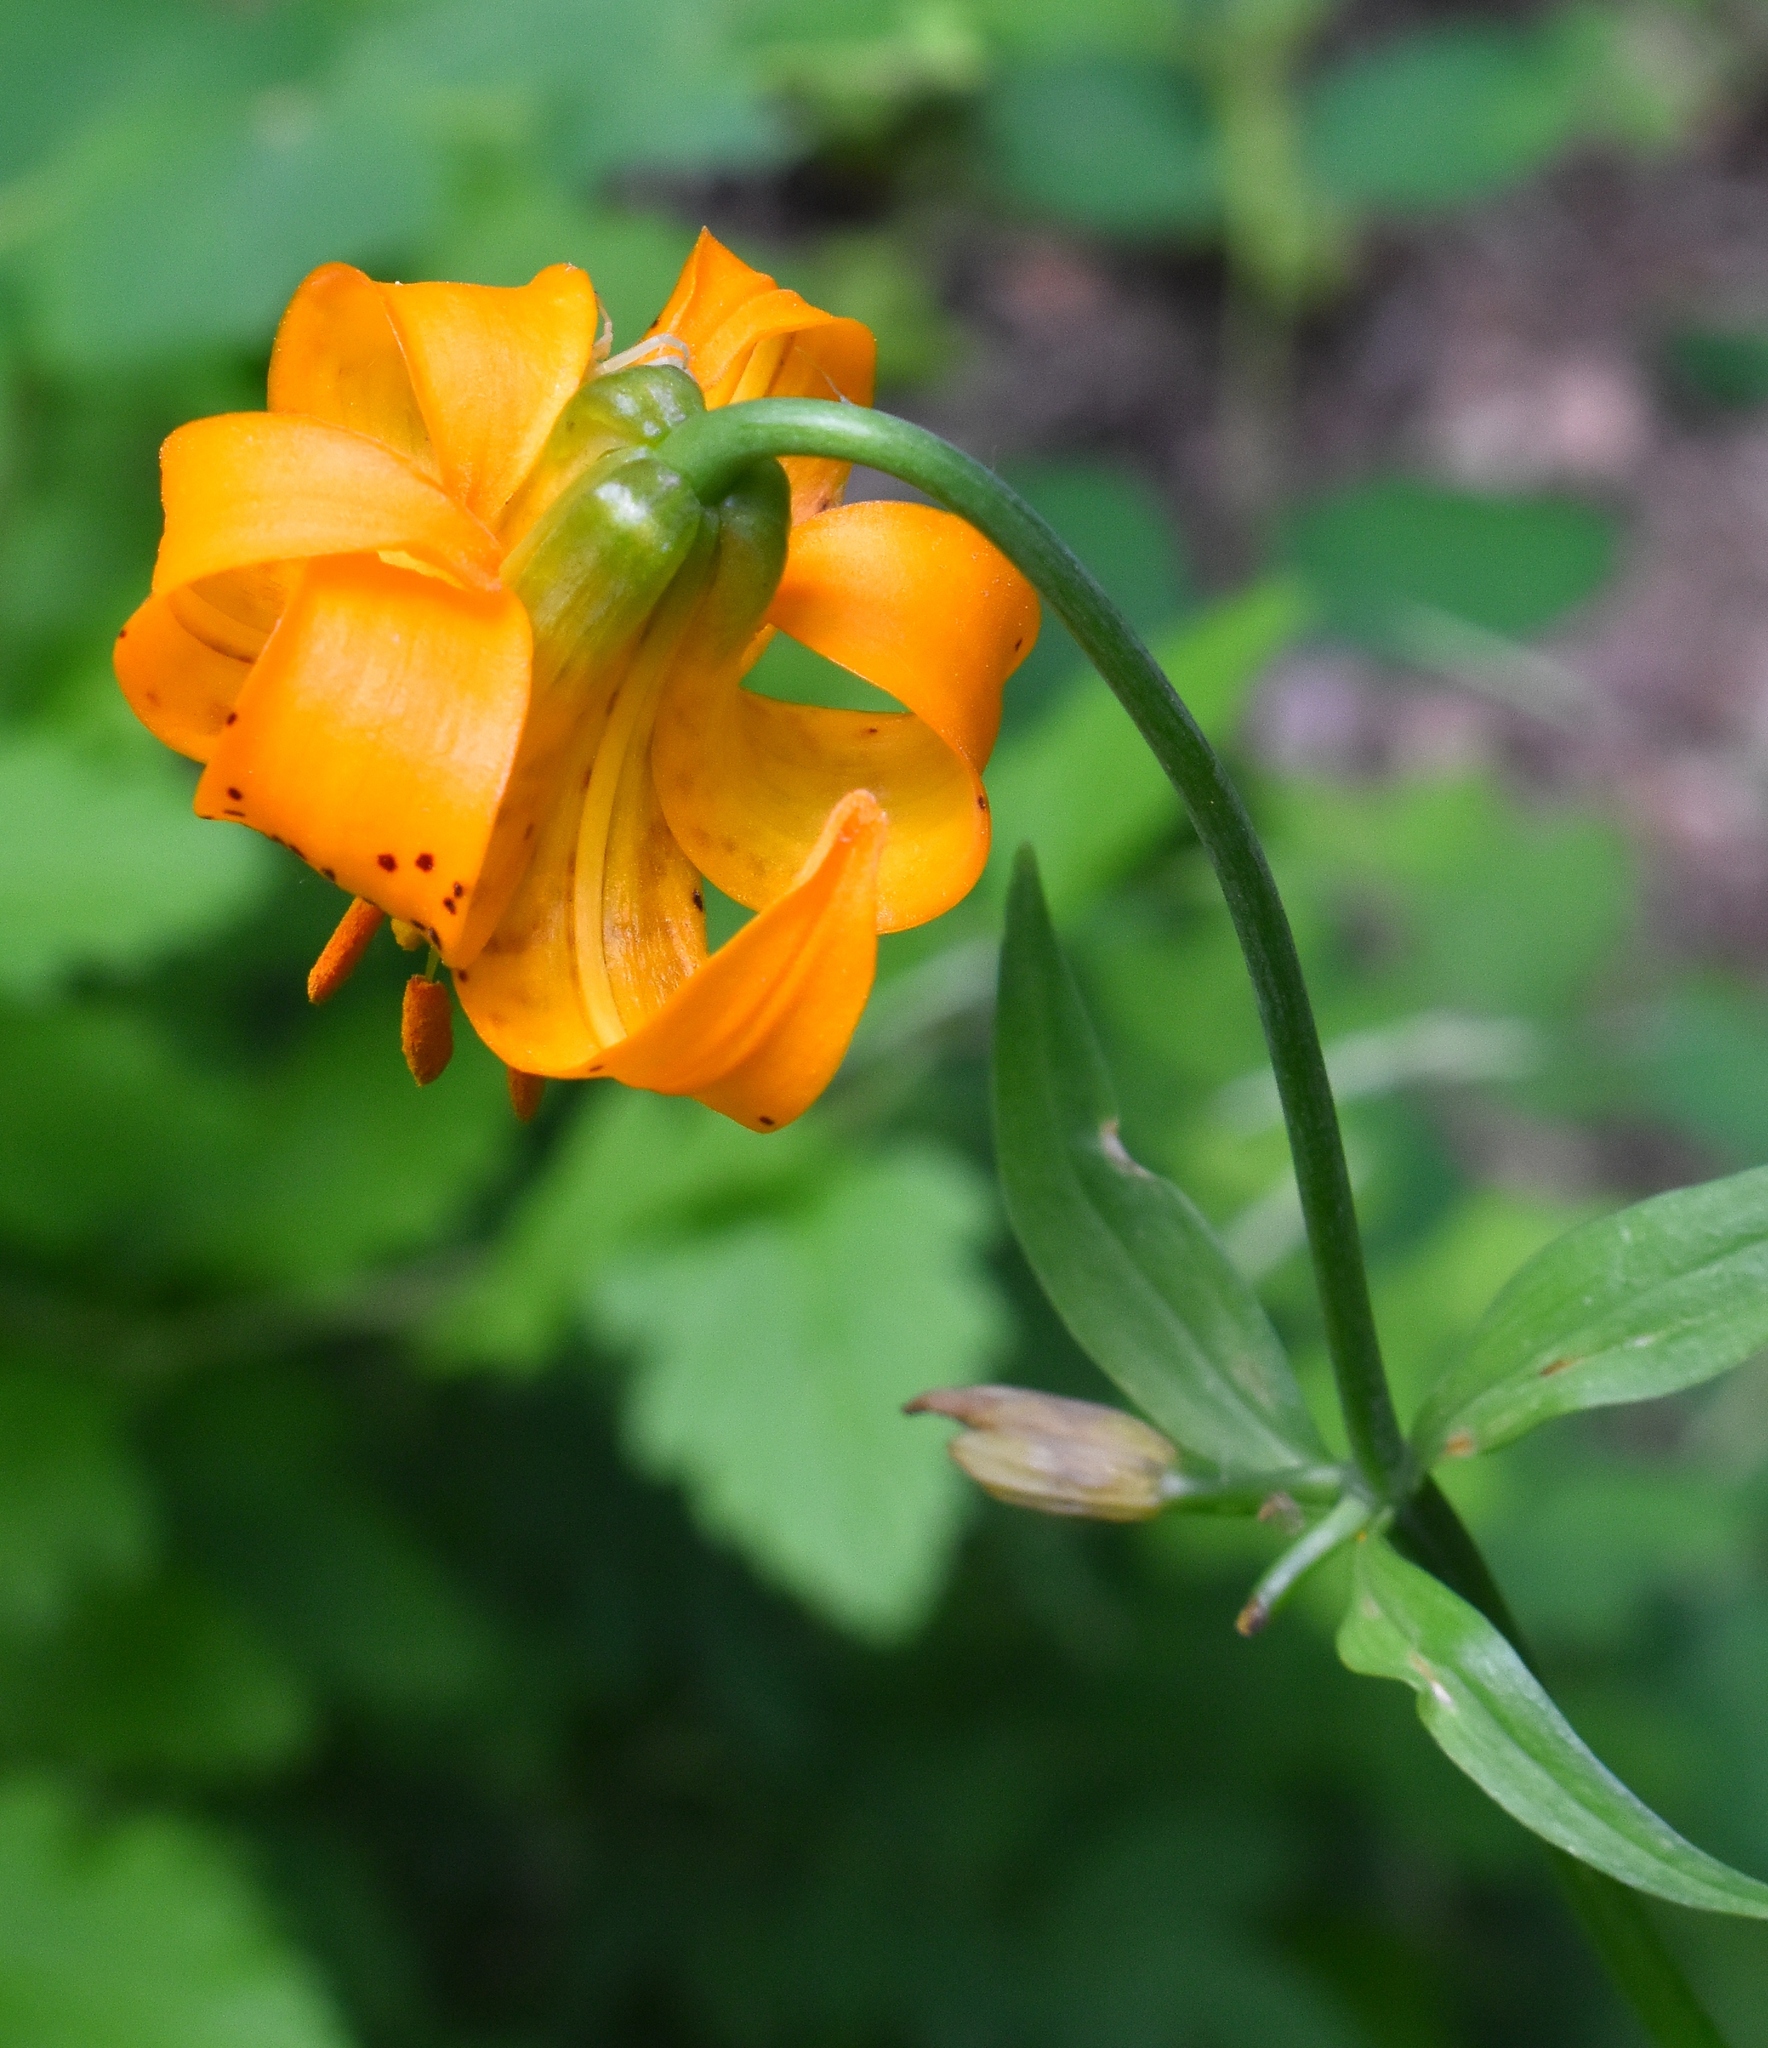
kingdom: Plantae
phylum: Tracheophyta
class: Liliopsida
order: Liliales
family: Liliaceae
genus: Lilium
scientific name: Lilium columbianum
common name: Columbia lily
